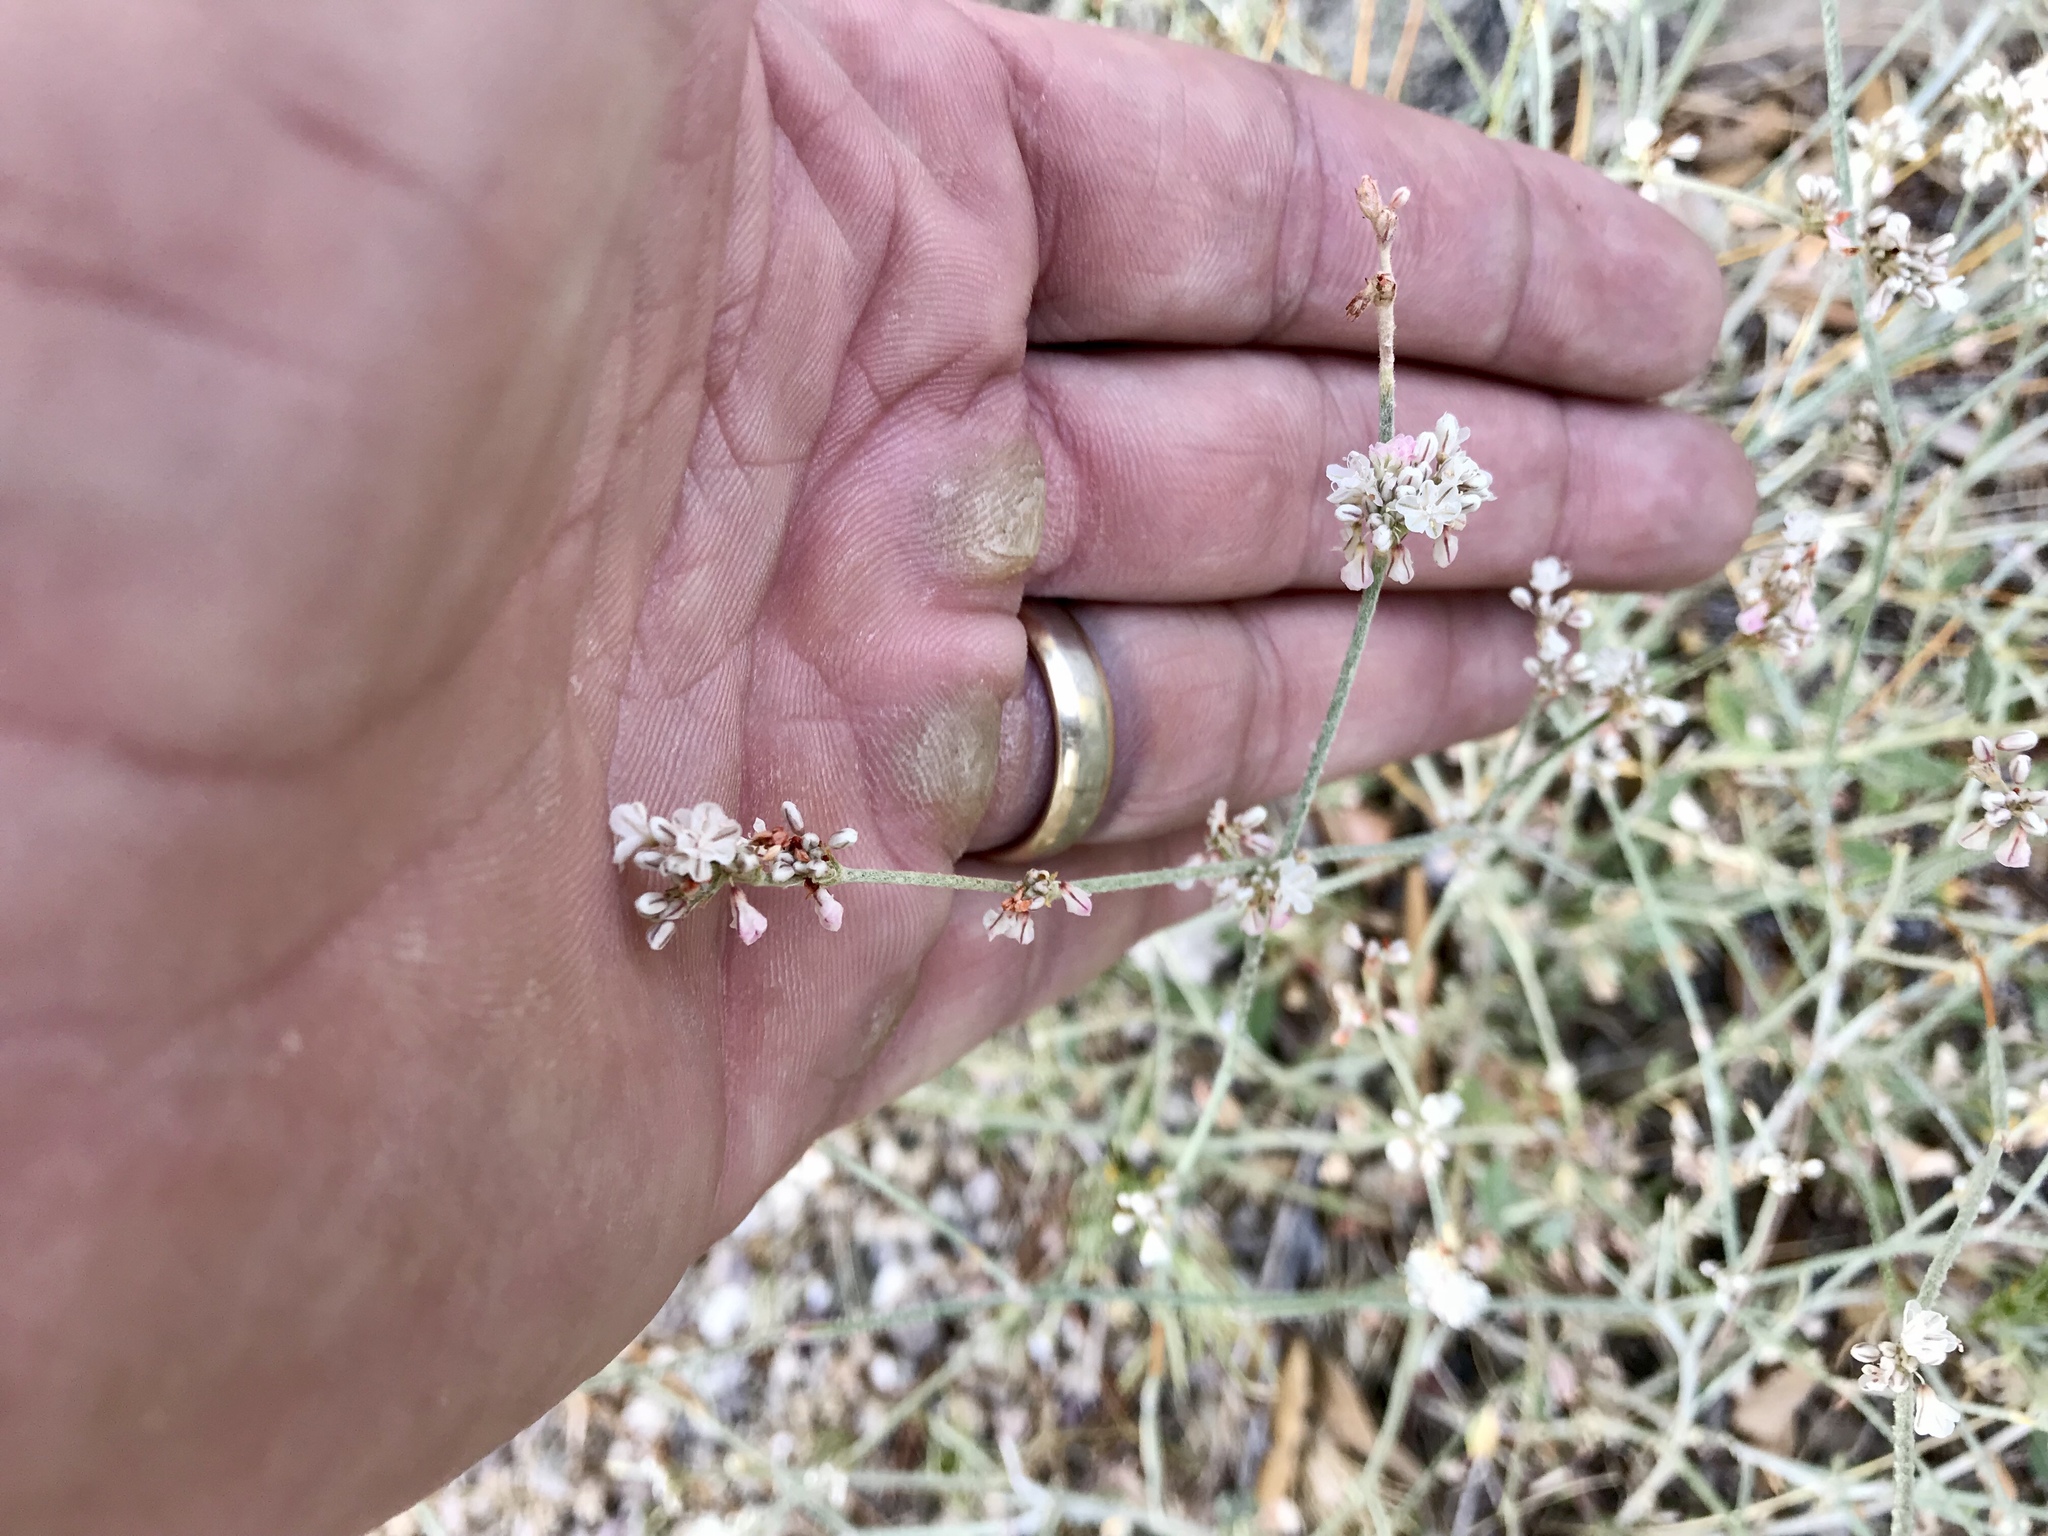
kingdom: Plantae
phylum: Tracheophyta
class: Magnoliopsida
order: Caryophyllales
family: Polygonaceae
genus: Eriogonum
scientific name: Eriogonum wrightii
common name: Bastard-sage
